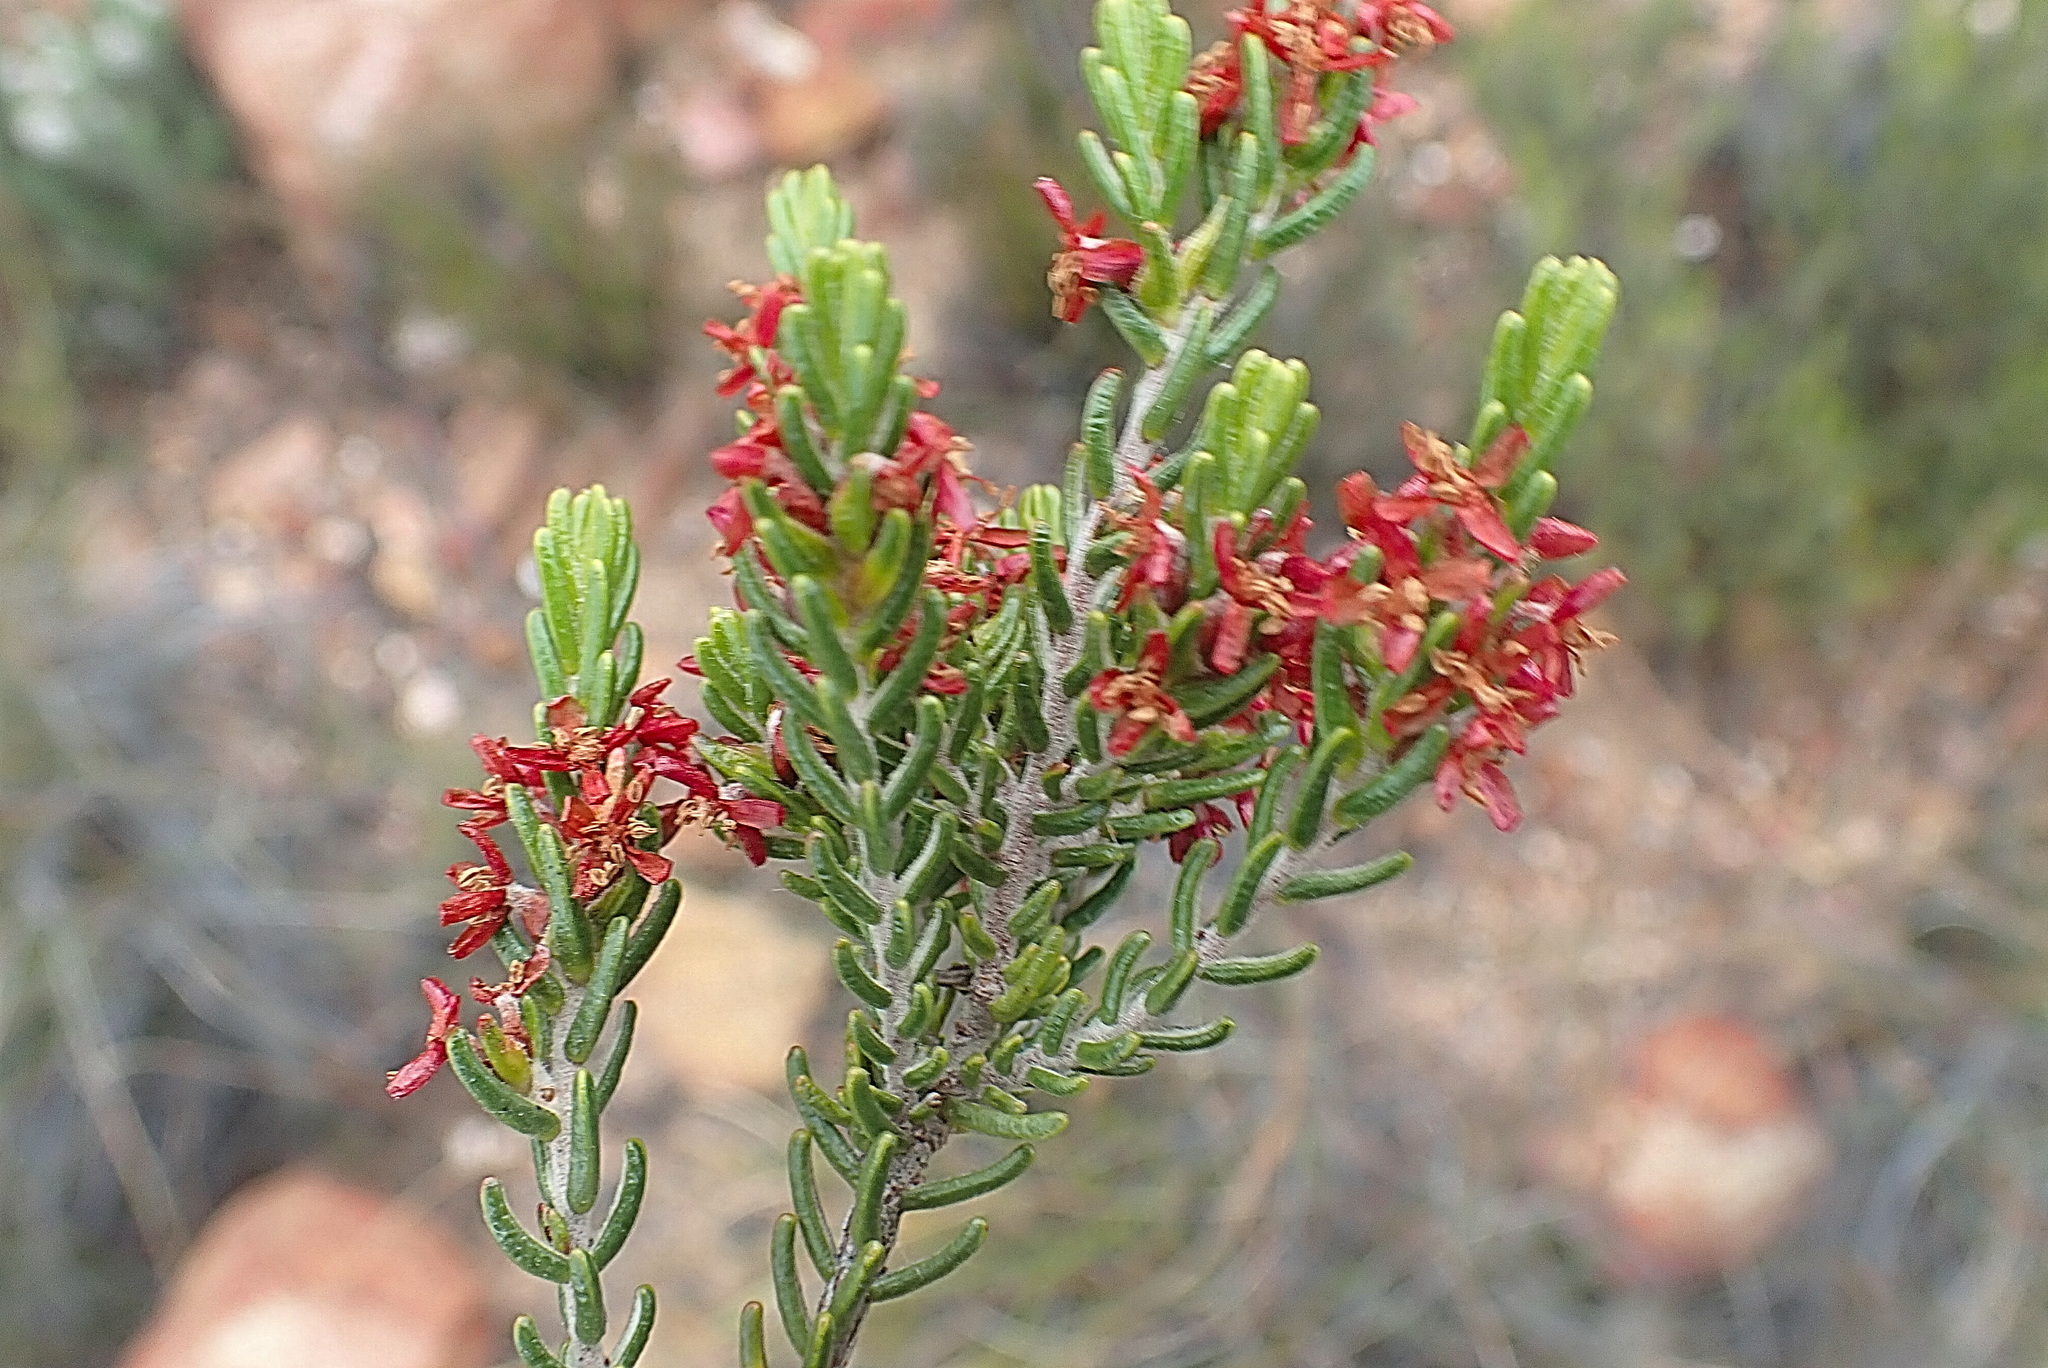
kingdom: Plantae
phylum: Tracheophyta
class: Magnoliopsida
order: Malvales
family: Thymelaeaceae
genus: Passerina
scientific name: Passerina obtusifolia
